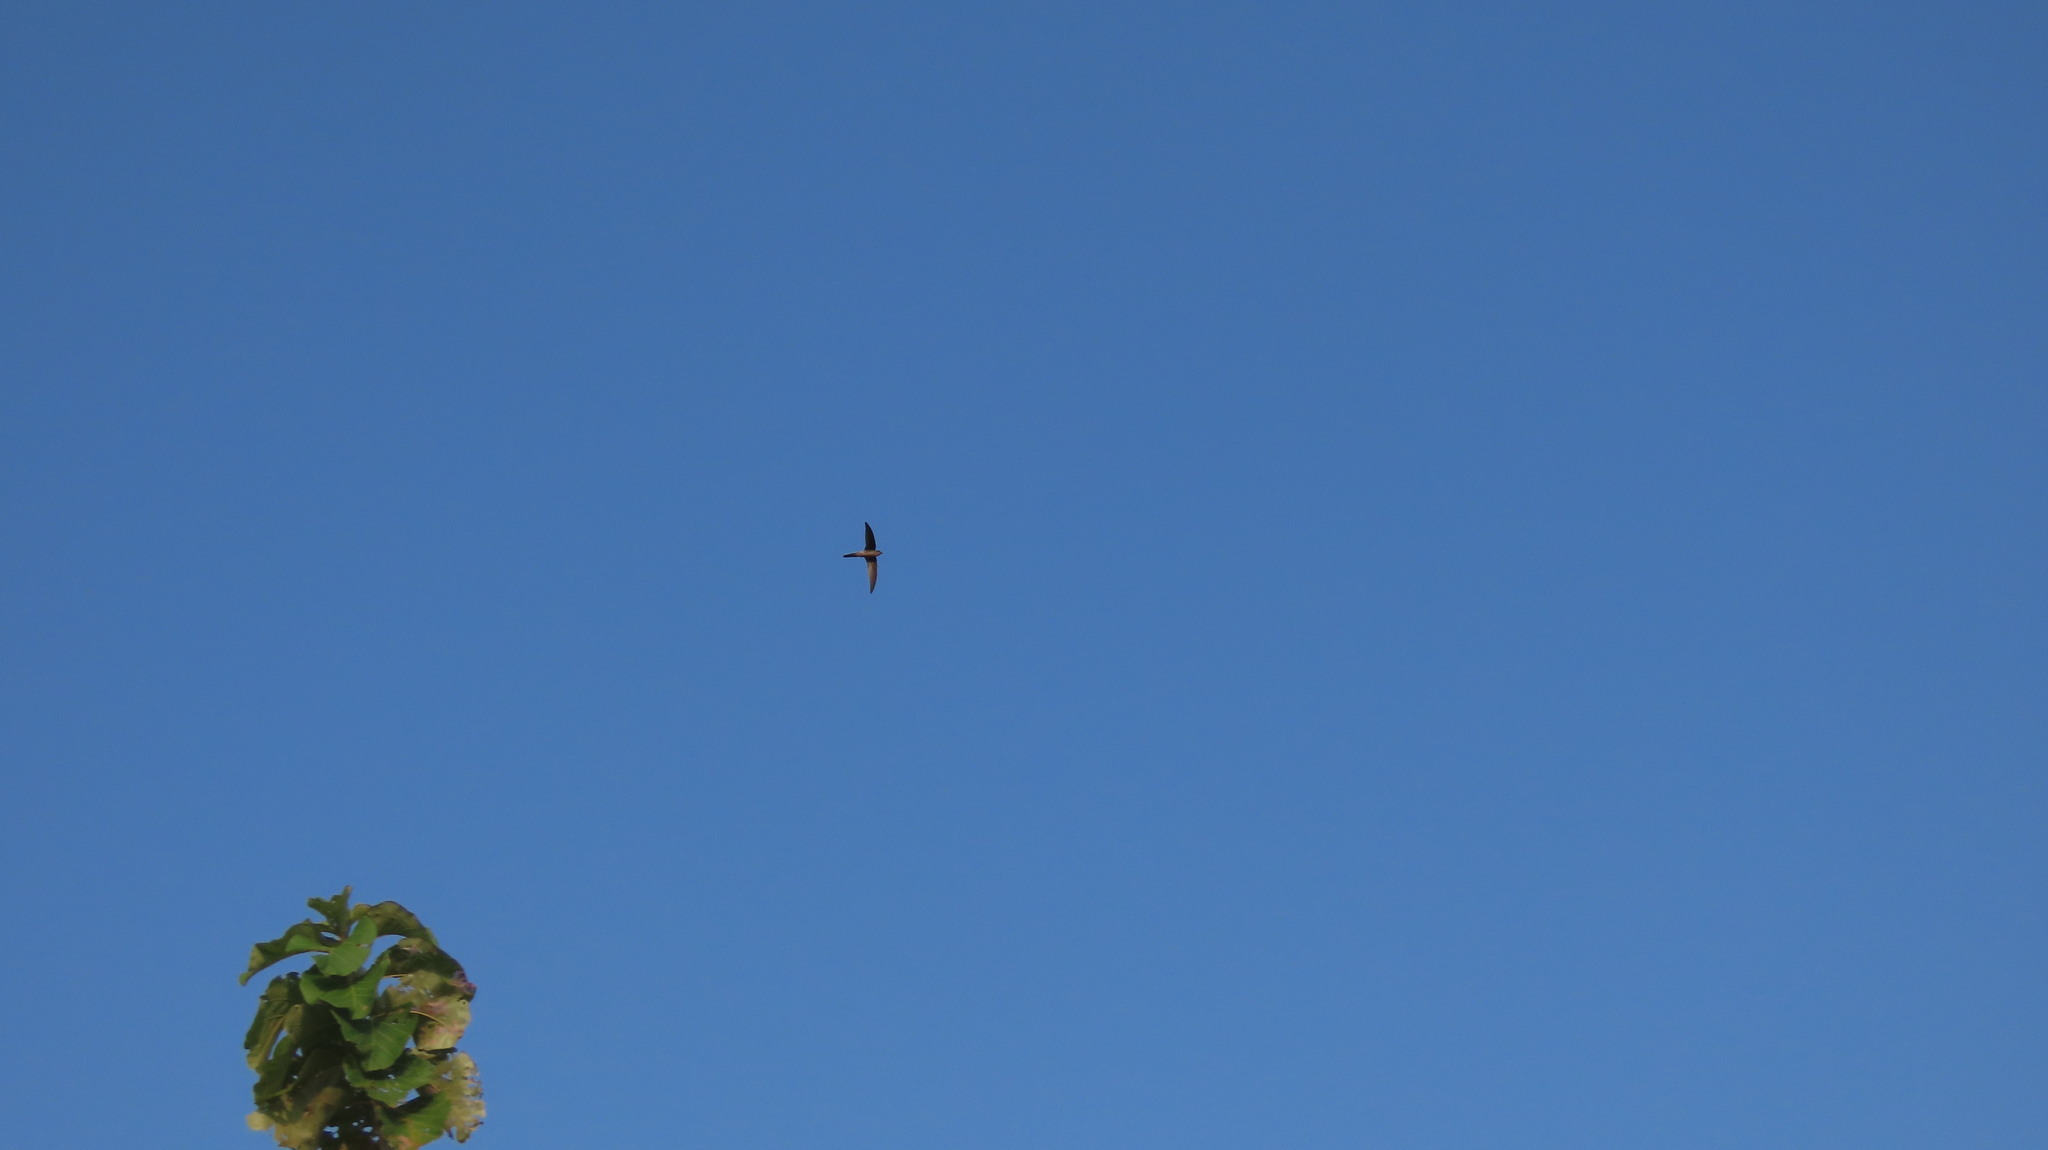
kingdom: Animalia
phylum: Chordata
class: Aves
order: Apodiformes
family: Apodidae
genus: Cypsiurus
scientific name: Cypsiurus balasiensis
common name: Asian palm swift
